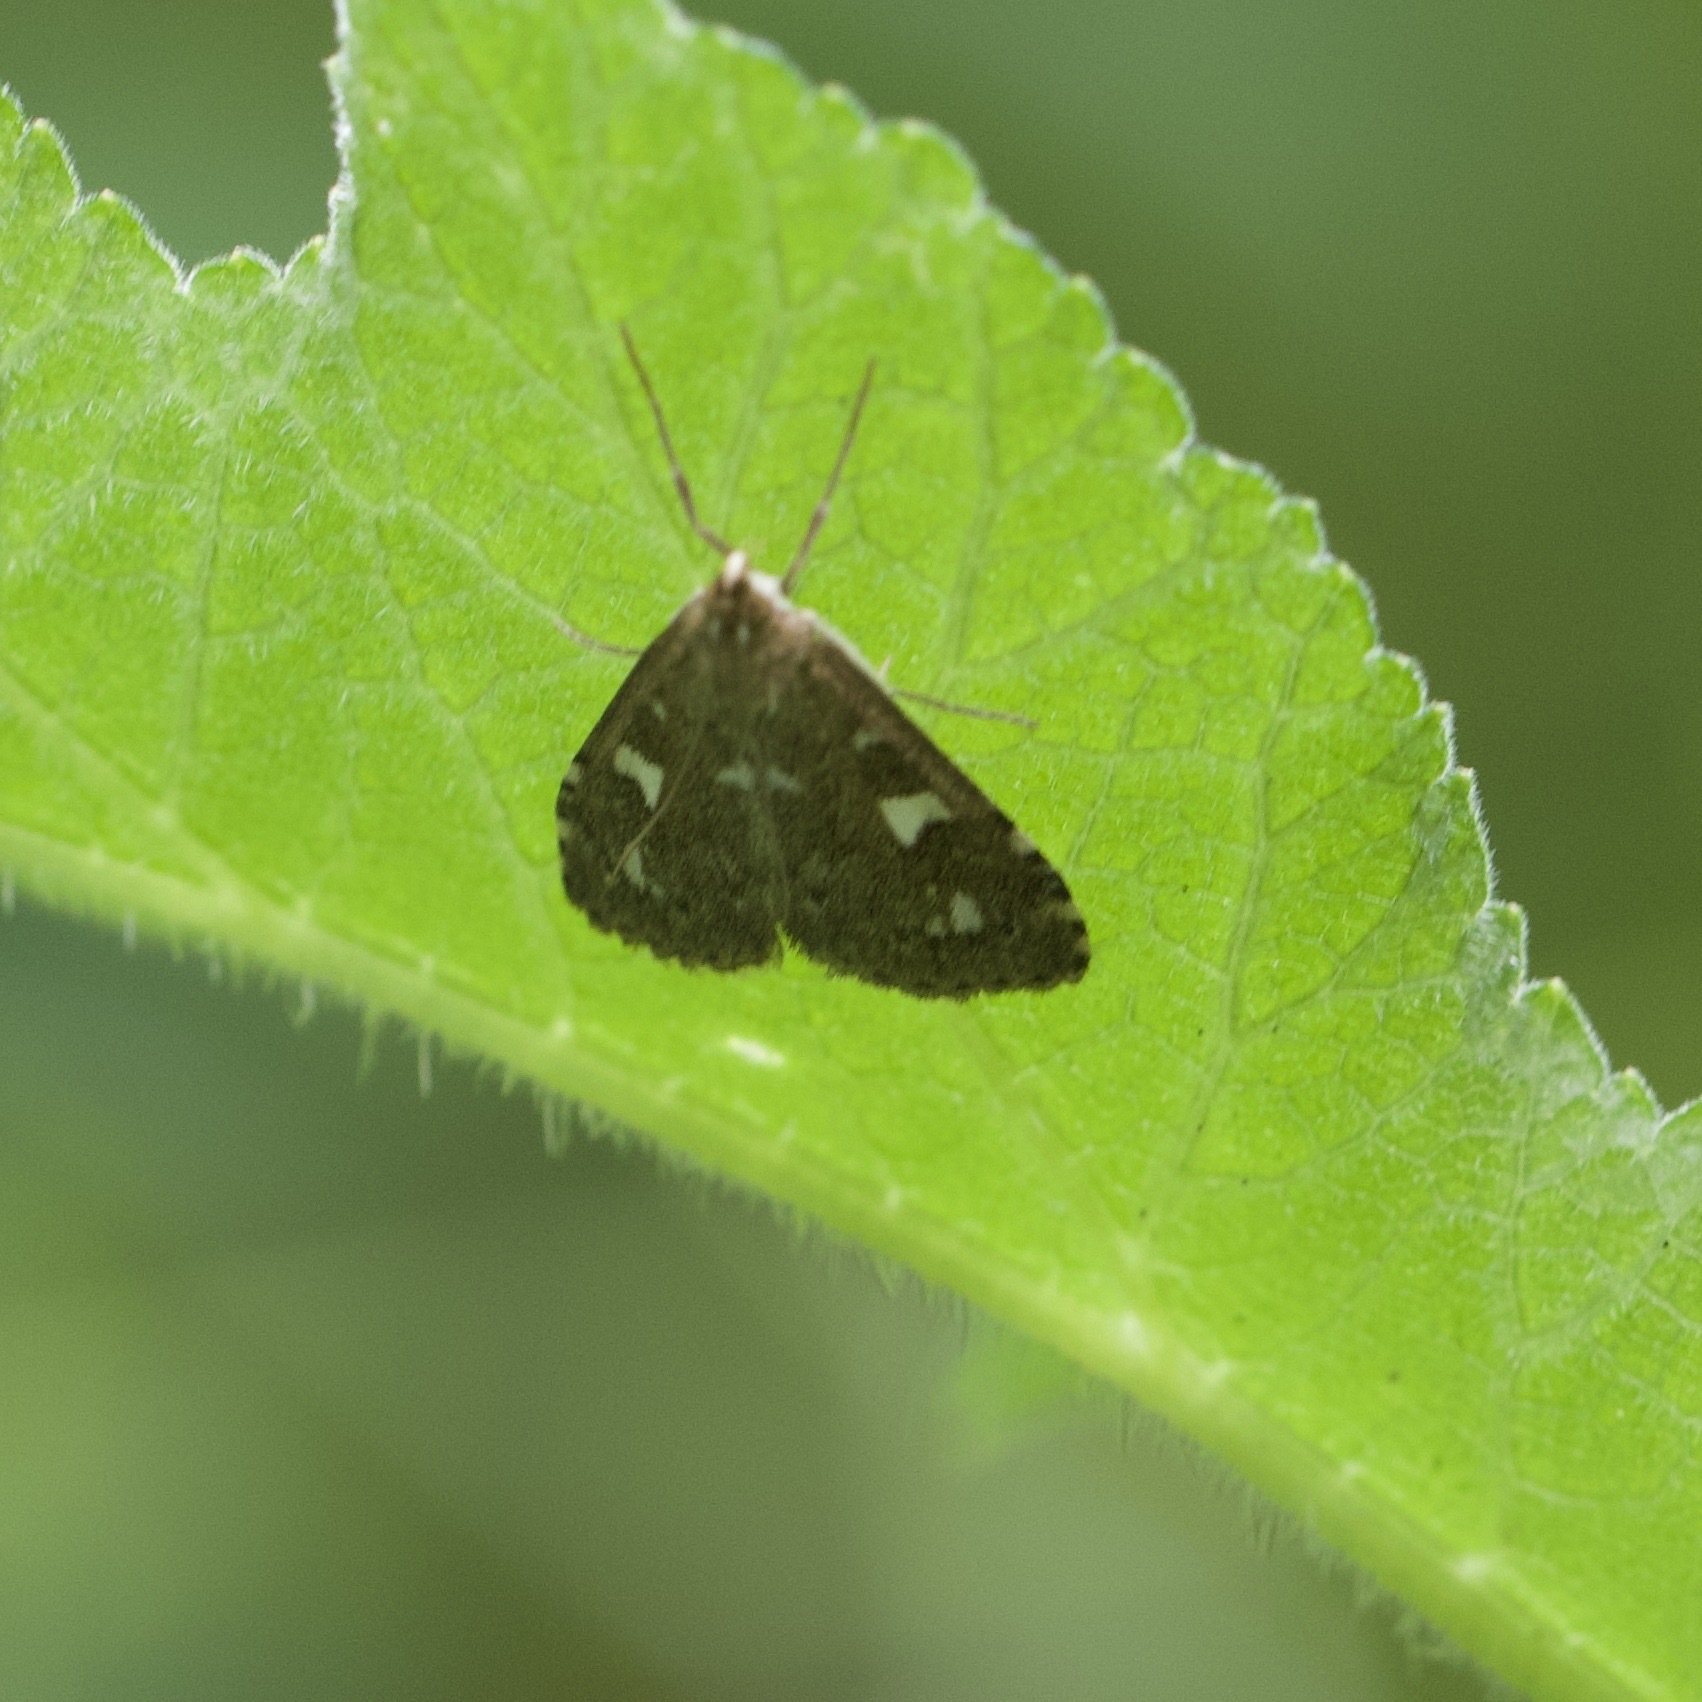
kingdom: Animalia
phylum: Arthropoda
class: Insecta
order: Lepidoptera
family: Crambidae
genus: Udea
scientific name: Udea olivalis
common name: Olive pearl
